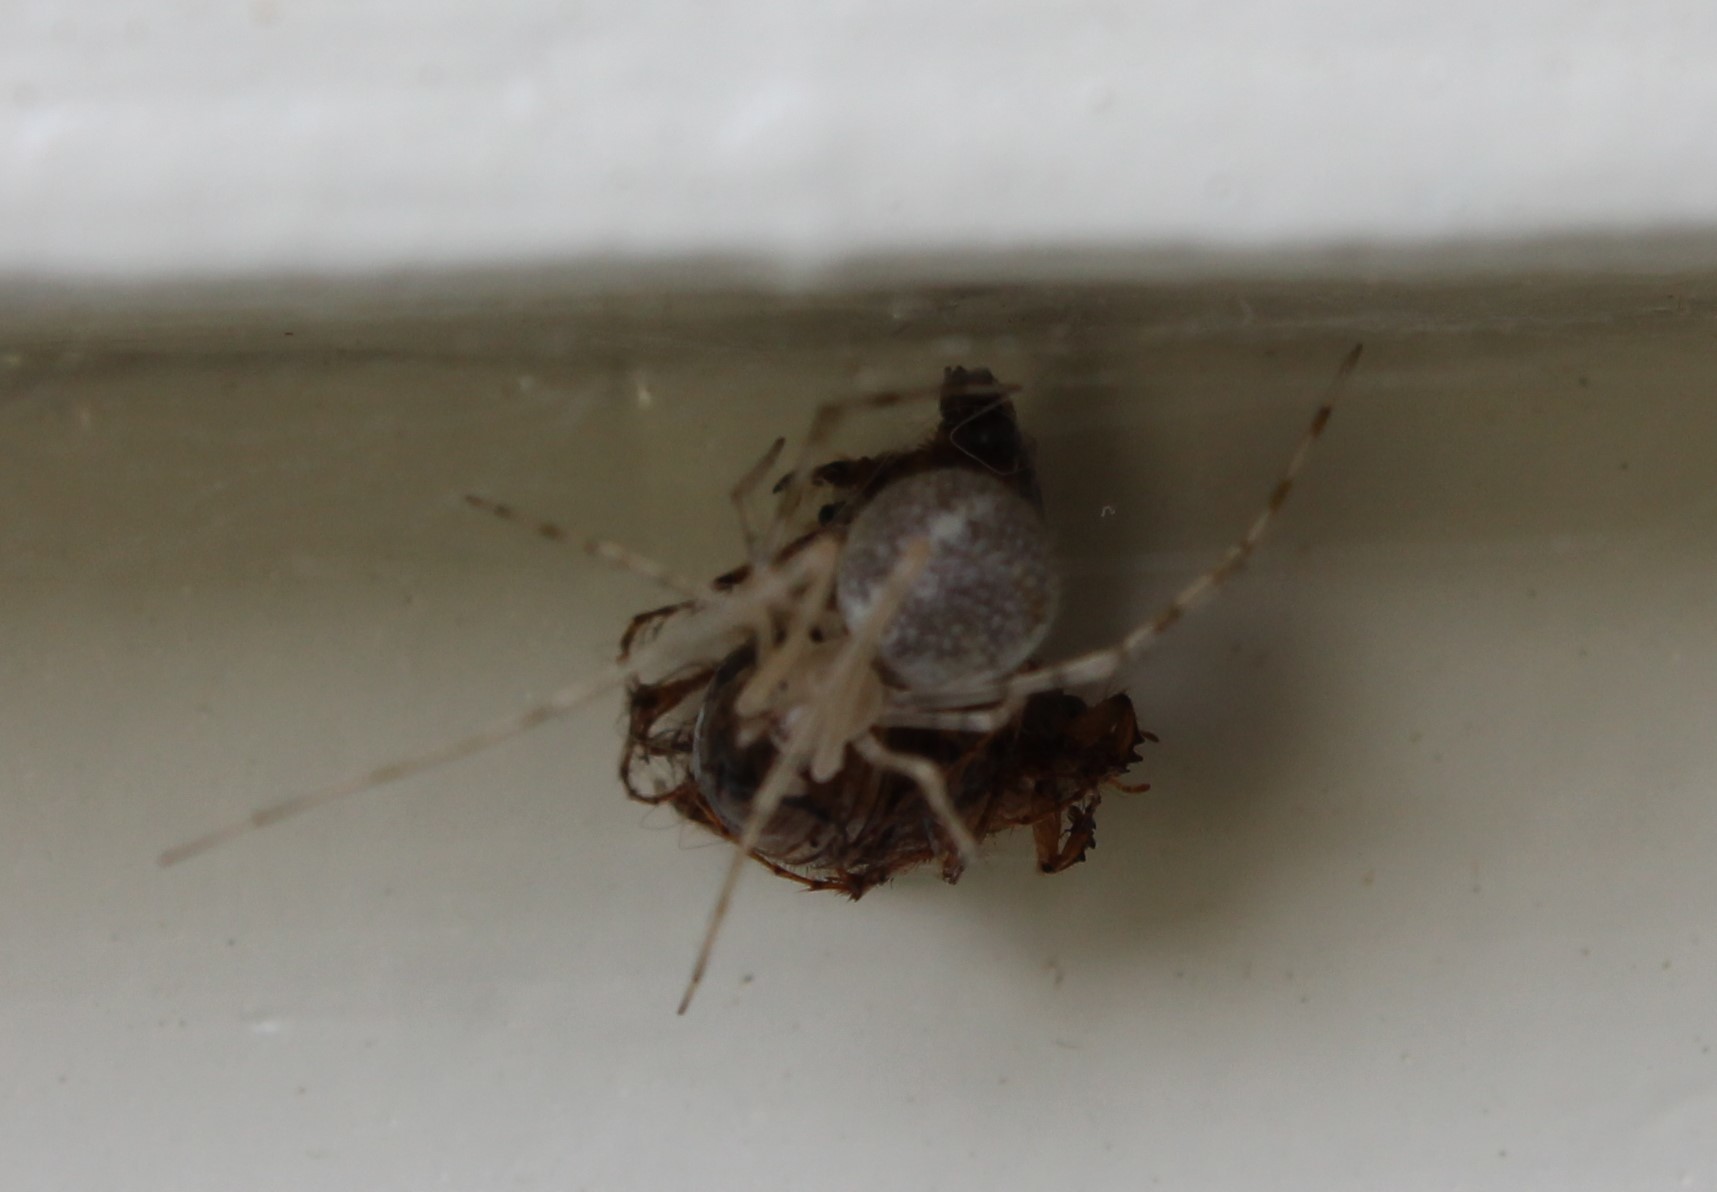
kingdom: Animalia
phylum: Arthropoda
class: Arachnida
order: Araneae
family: Theridiidae
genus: Cryptachaea
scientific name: Cryptachaea gigantipes
